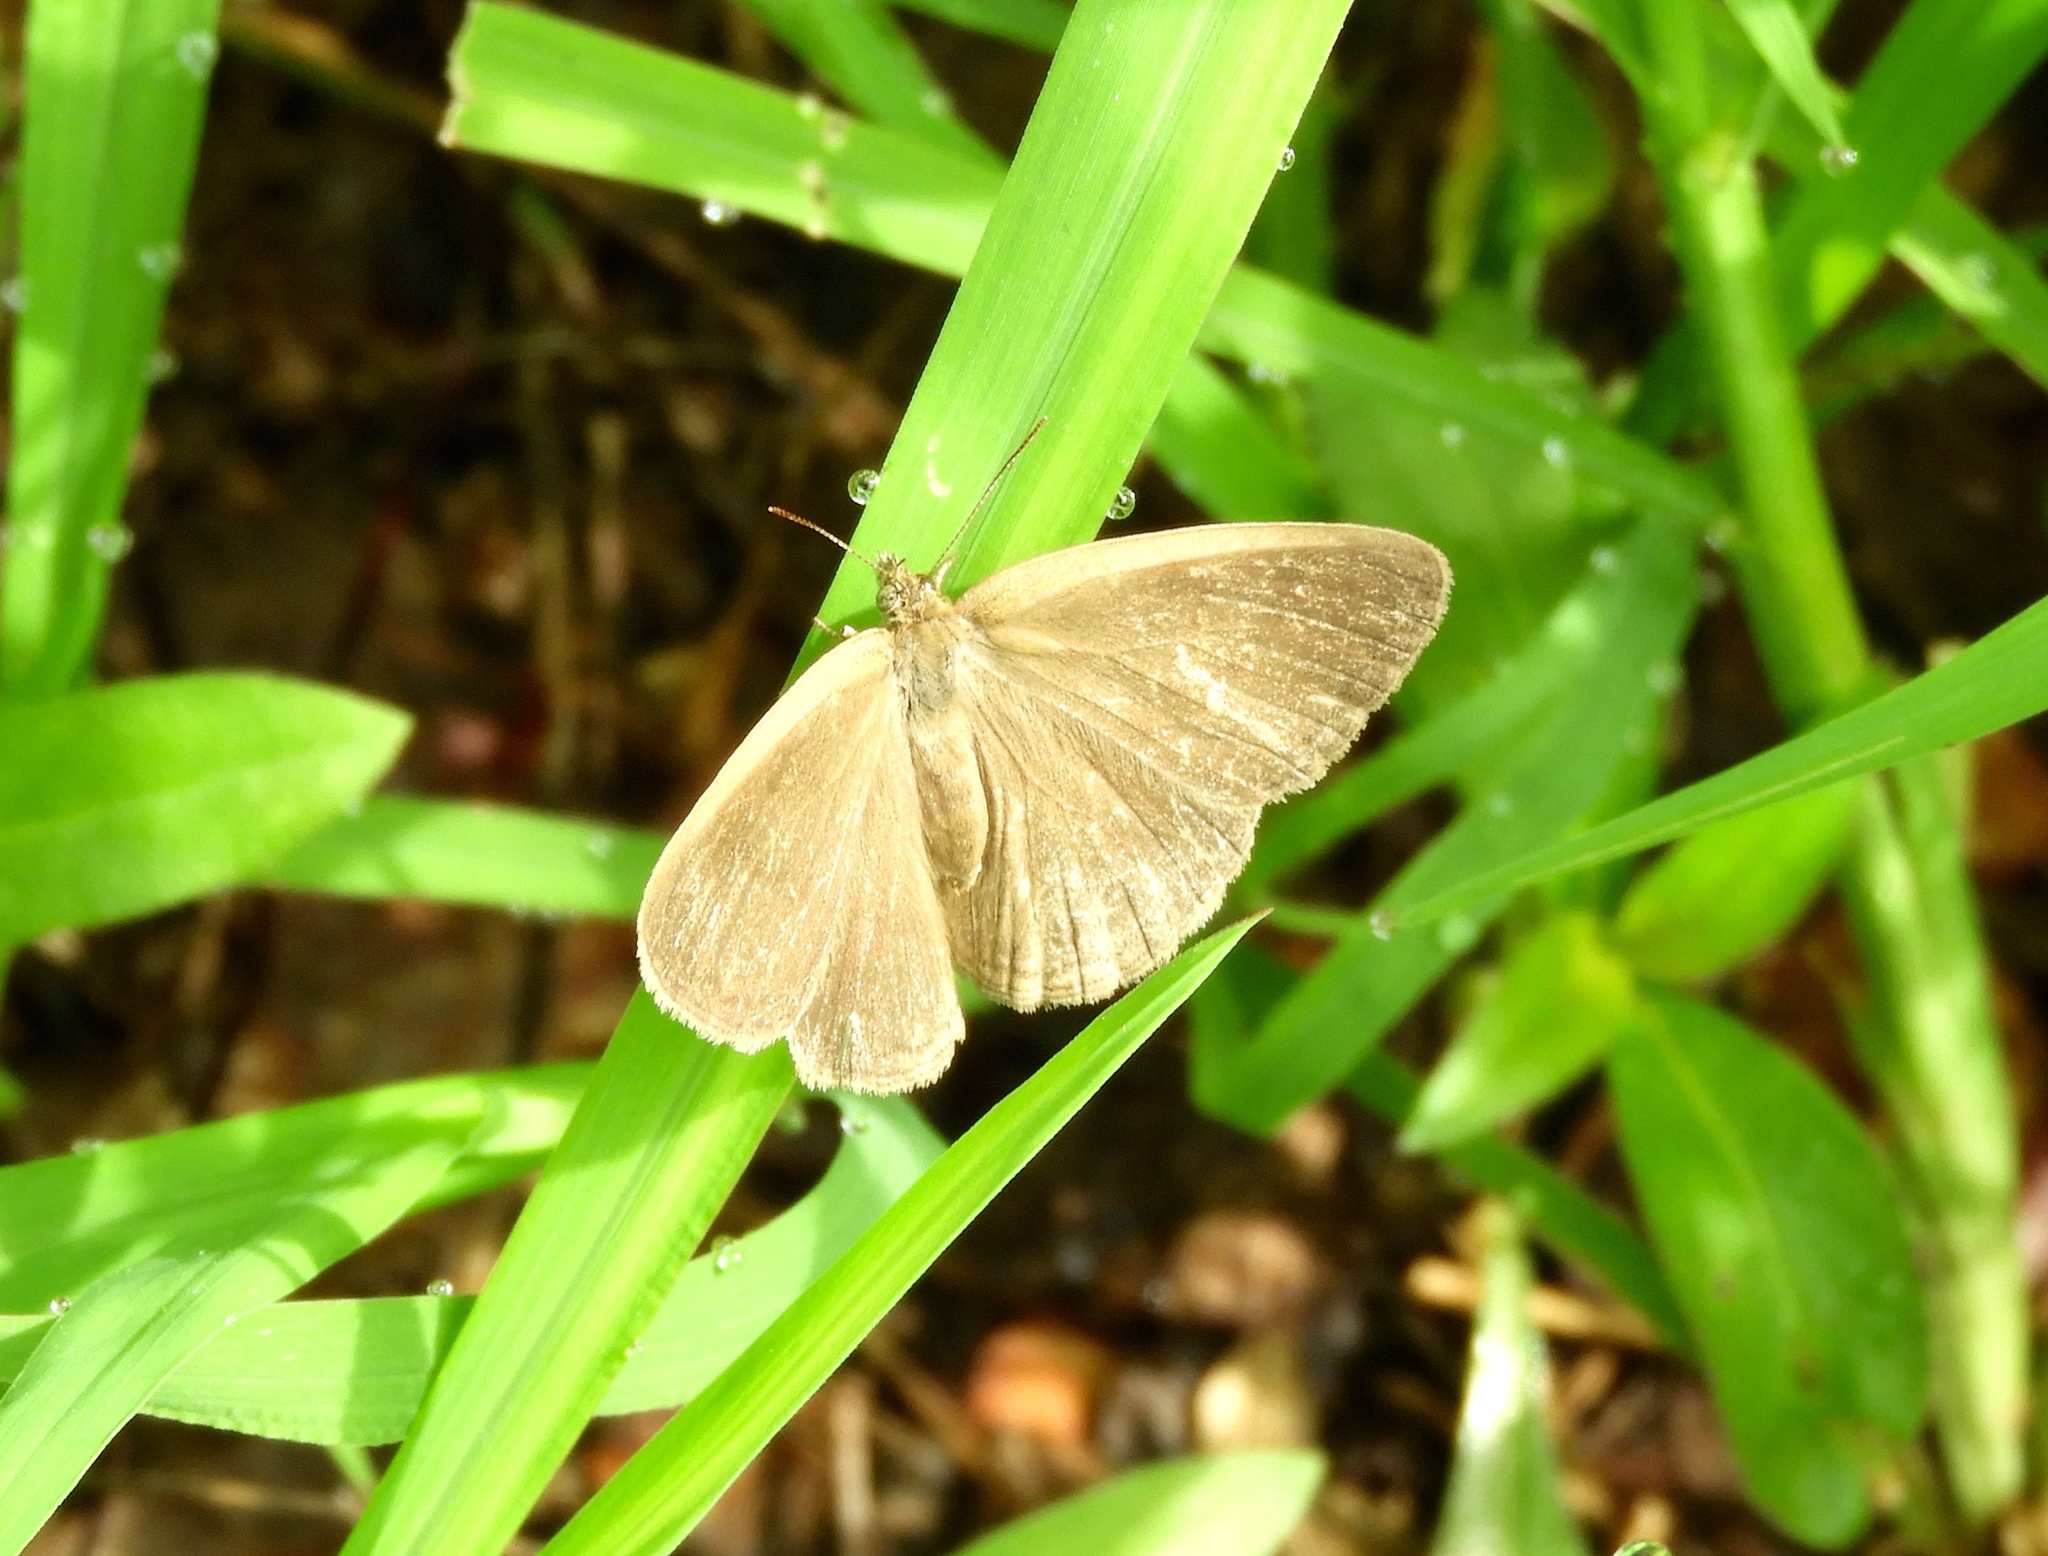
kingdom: Animalia
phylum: Arthropoda
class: Insecta
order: Lepidoptera
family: Nymphalidae
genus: Hermeuptychia
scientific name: Hermeuptychia hermes
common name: Hermes satyr
